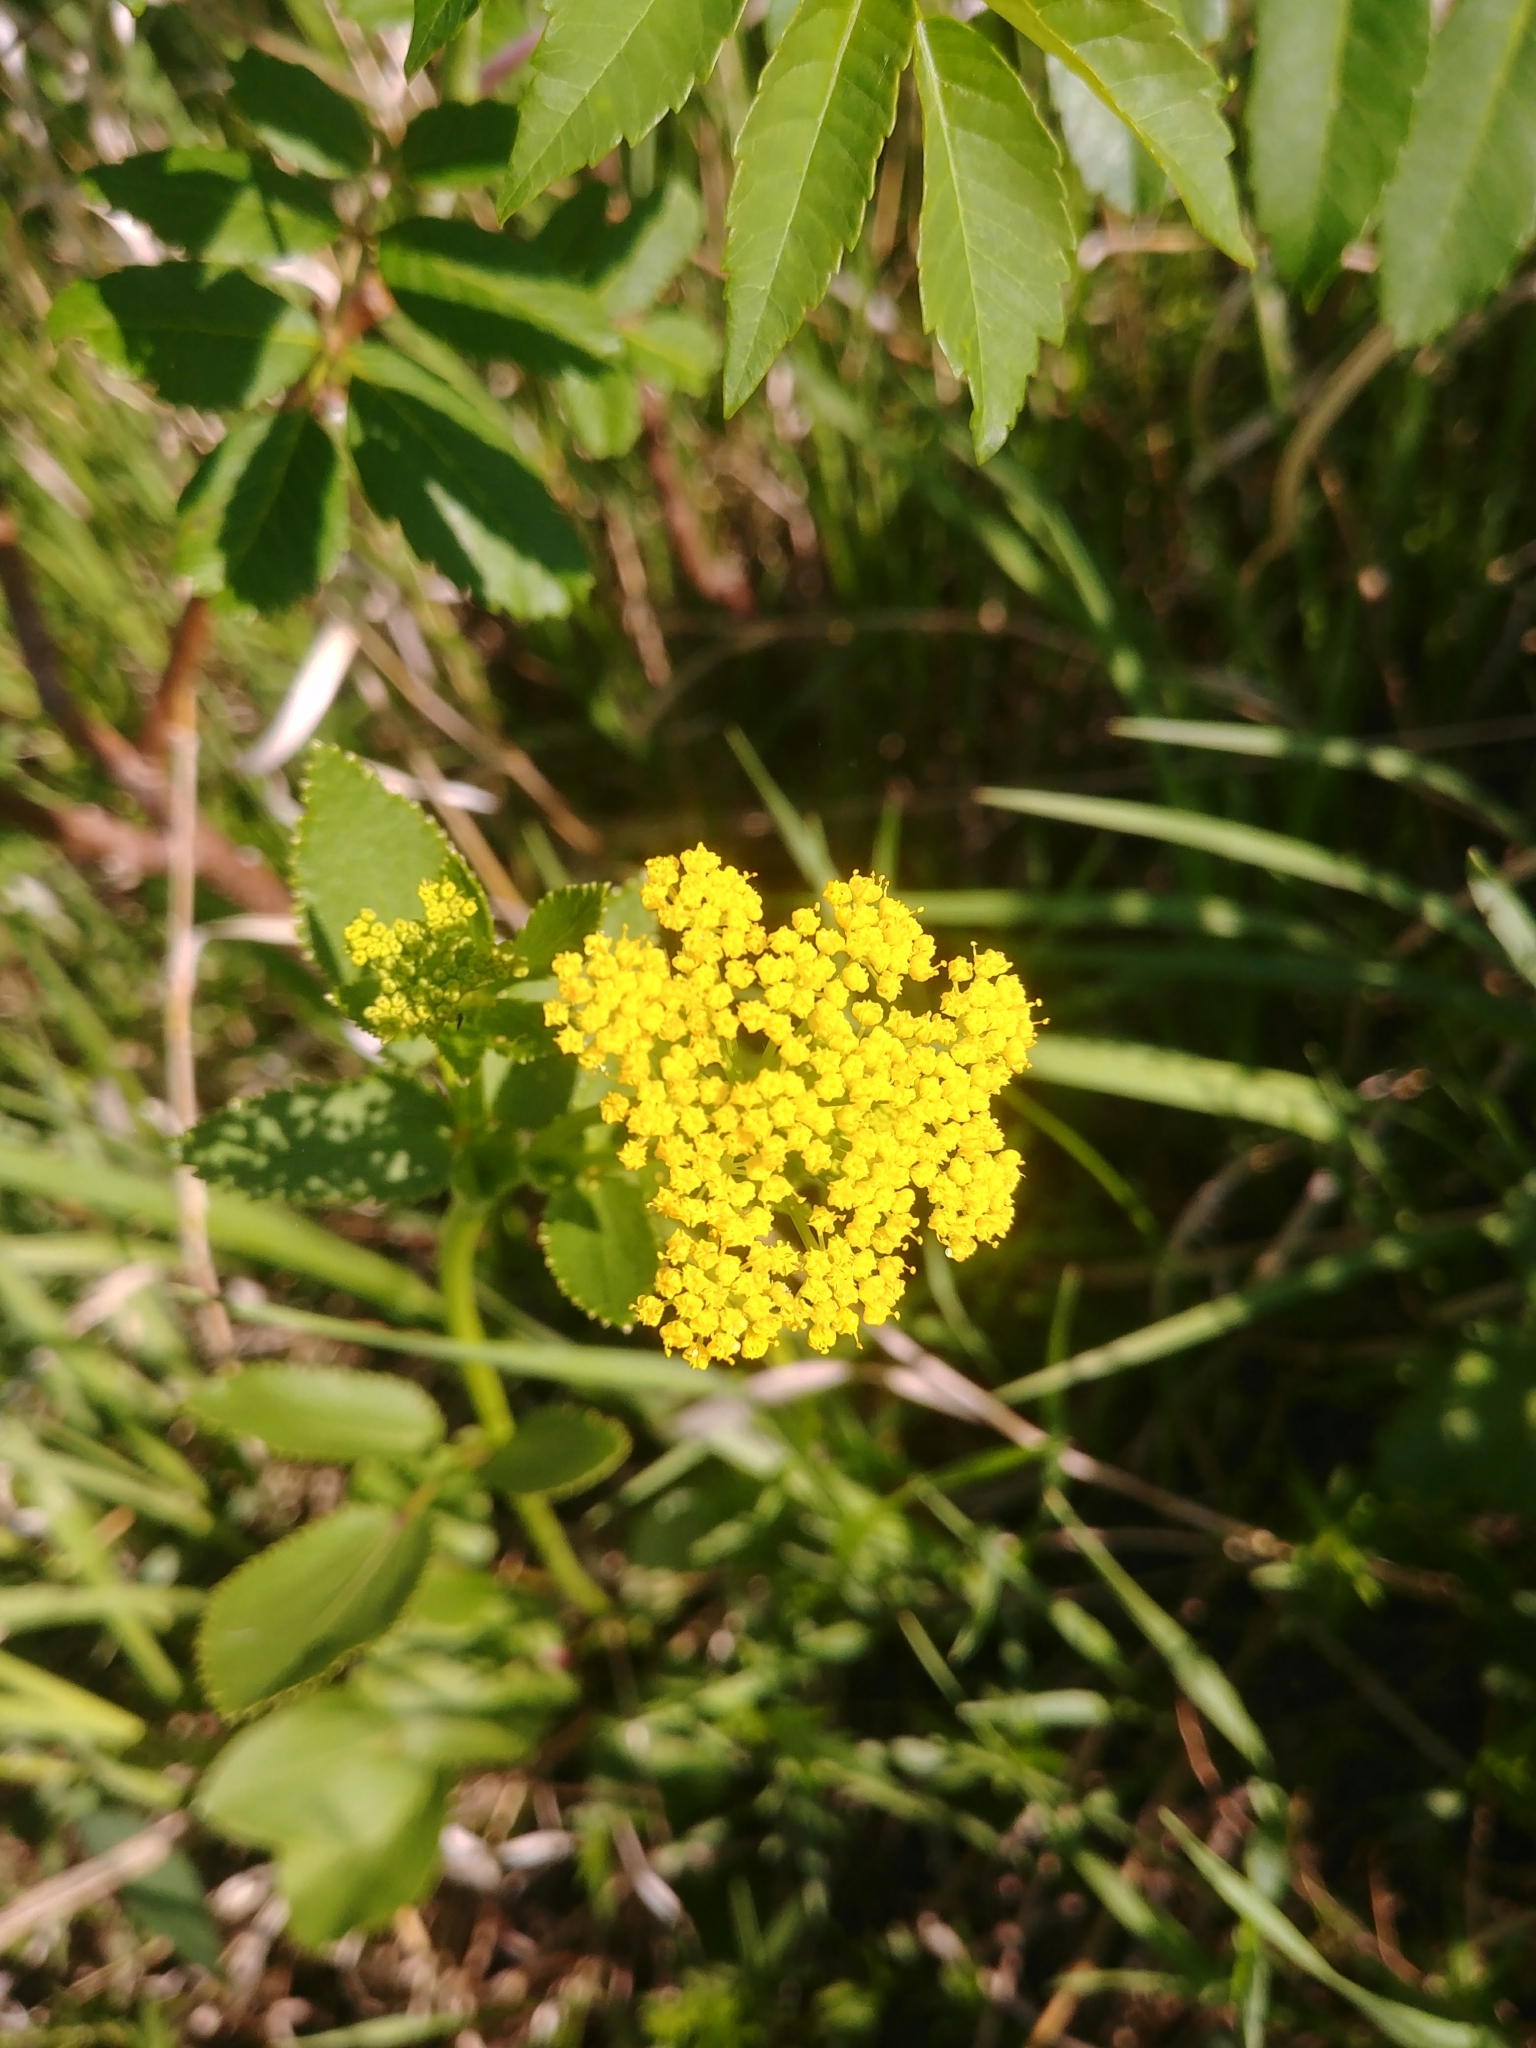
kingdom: Plantae
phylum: Tracheophyta
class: Magnoliopsida
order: Apiales
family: Apiaceae
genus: Zizia
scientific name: Zizia aptera
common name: Heart-leaved alexanders
